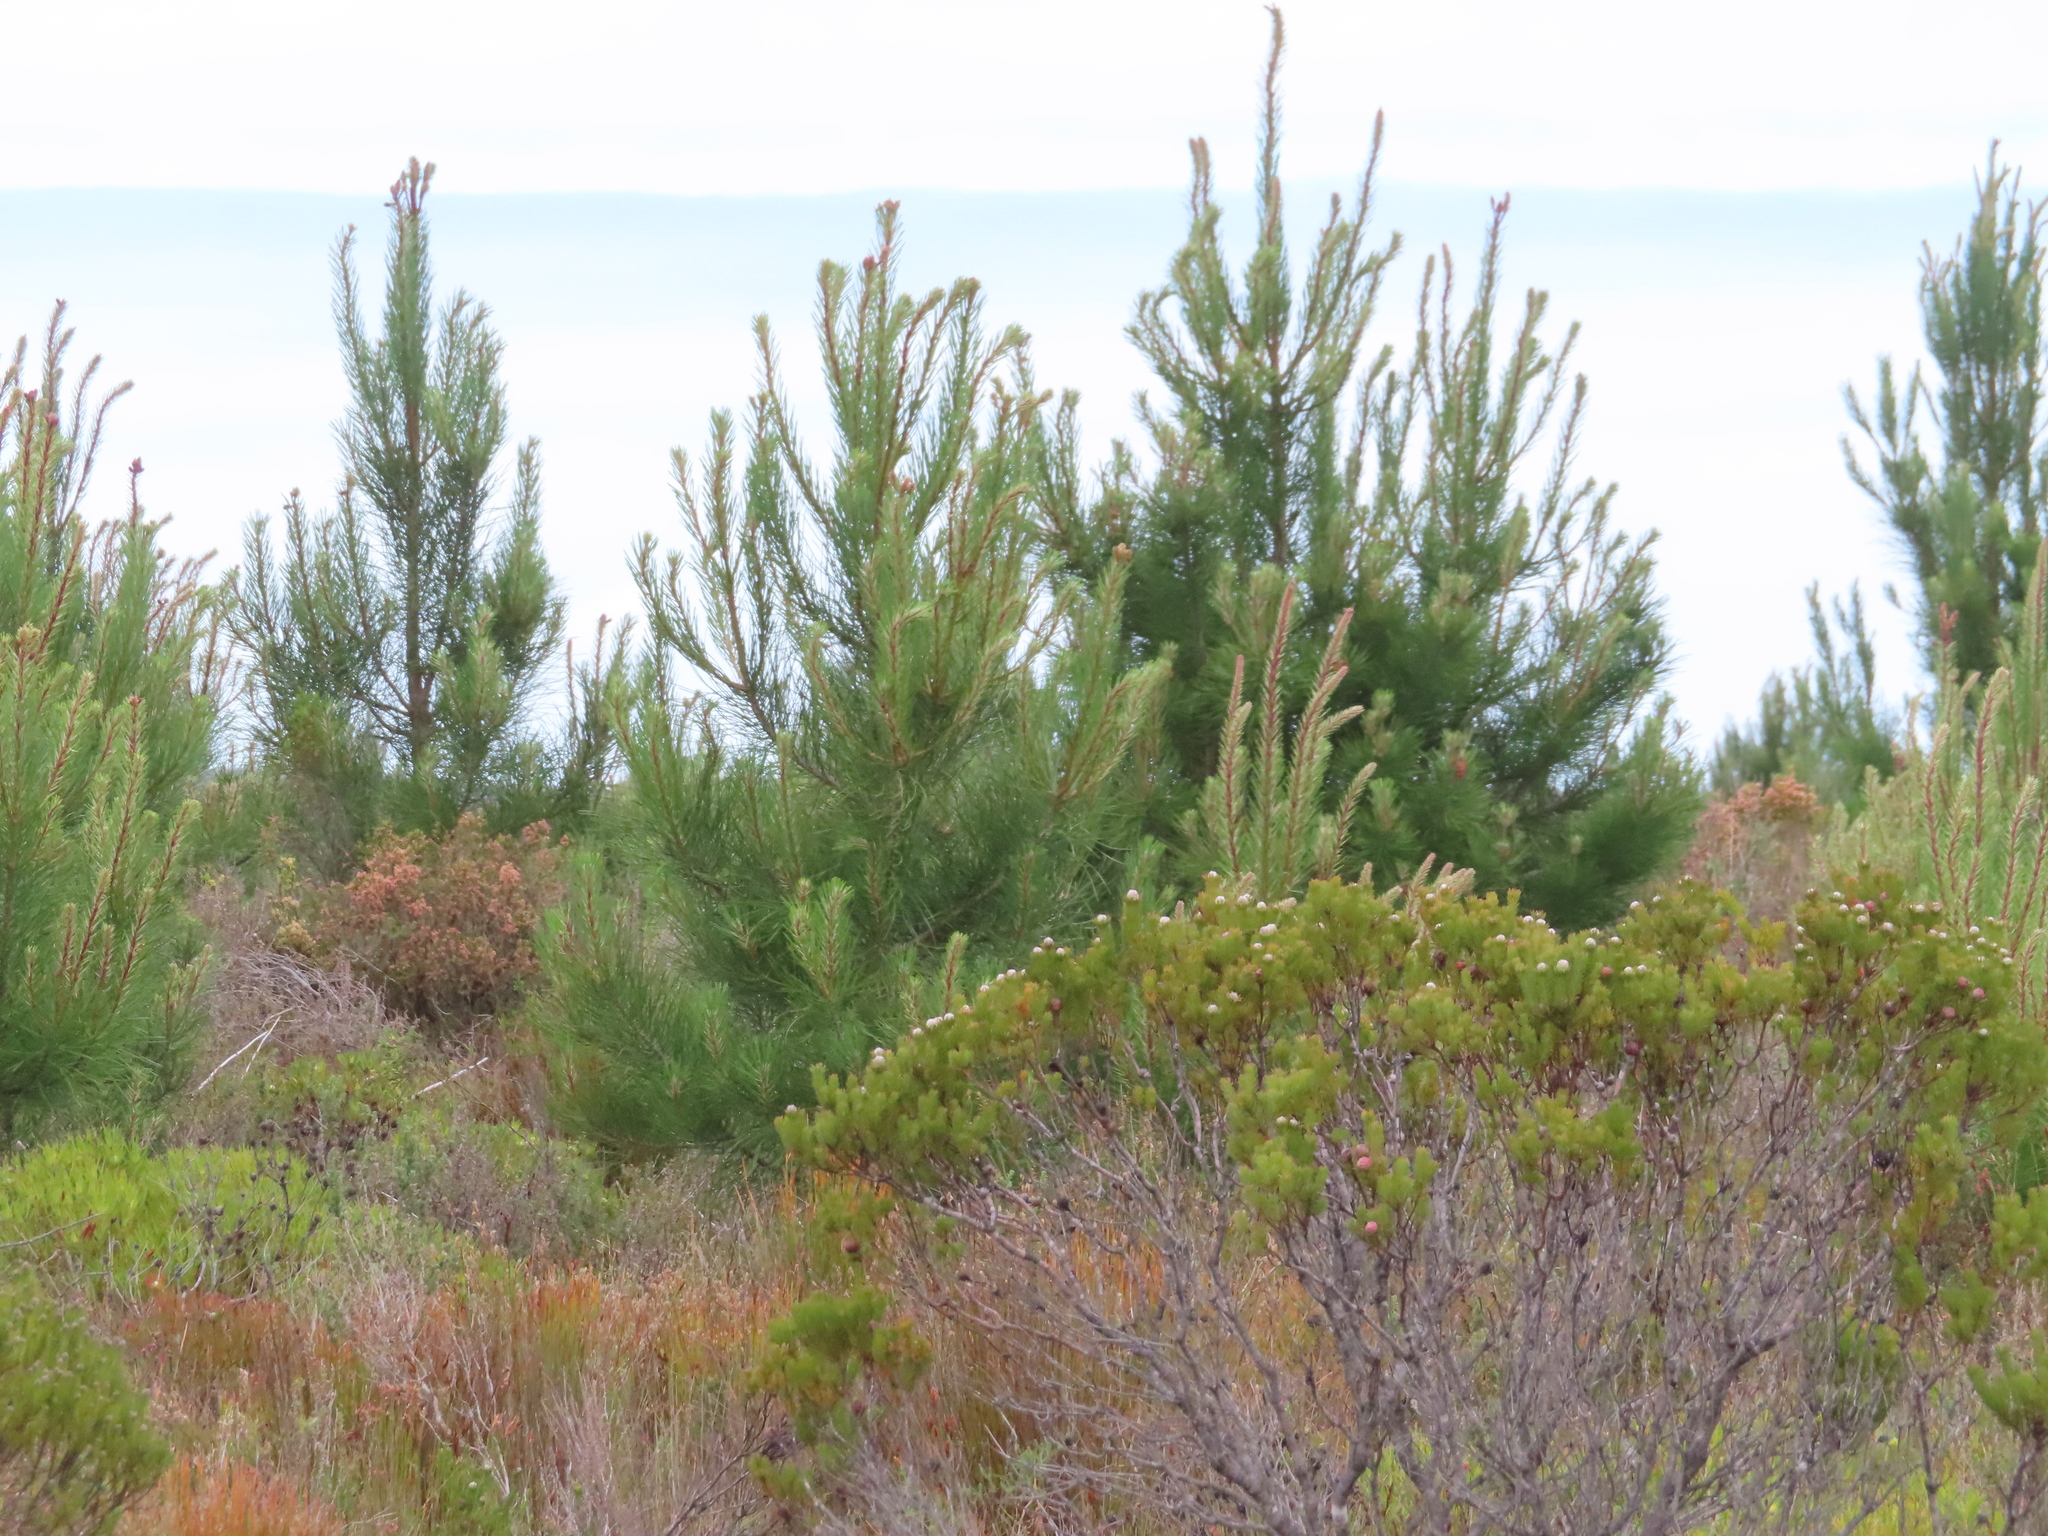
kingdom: Plantae
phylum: Tracheophyta
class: Pinopsida
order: Pinales
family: Pinaceae
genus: Pinus
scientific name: Pinus pinaster
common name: Maritime pine
